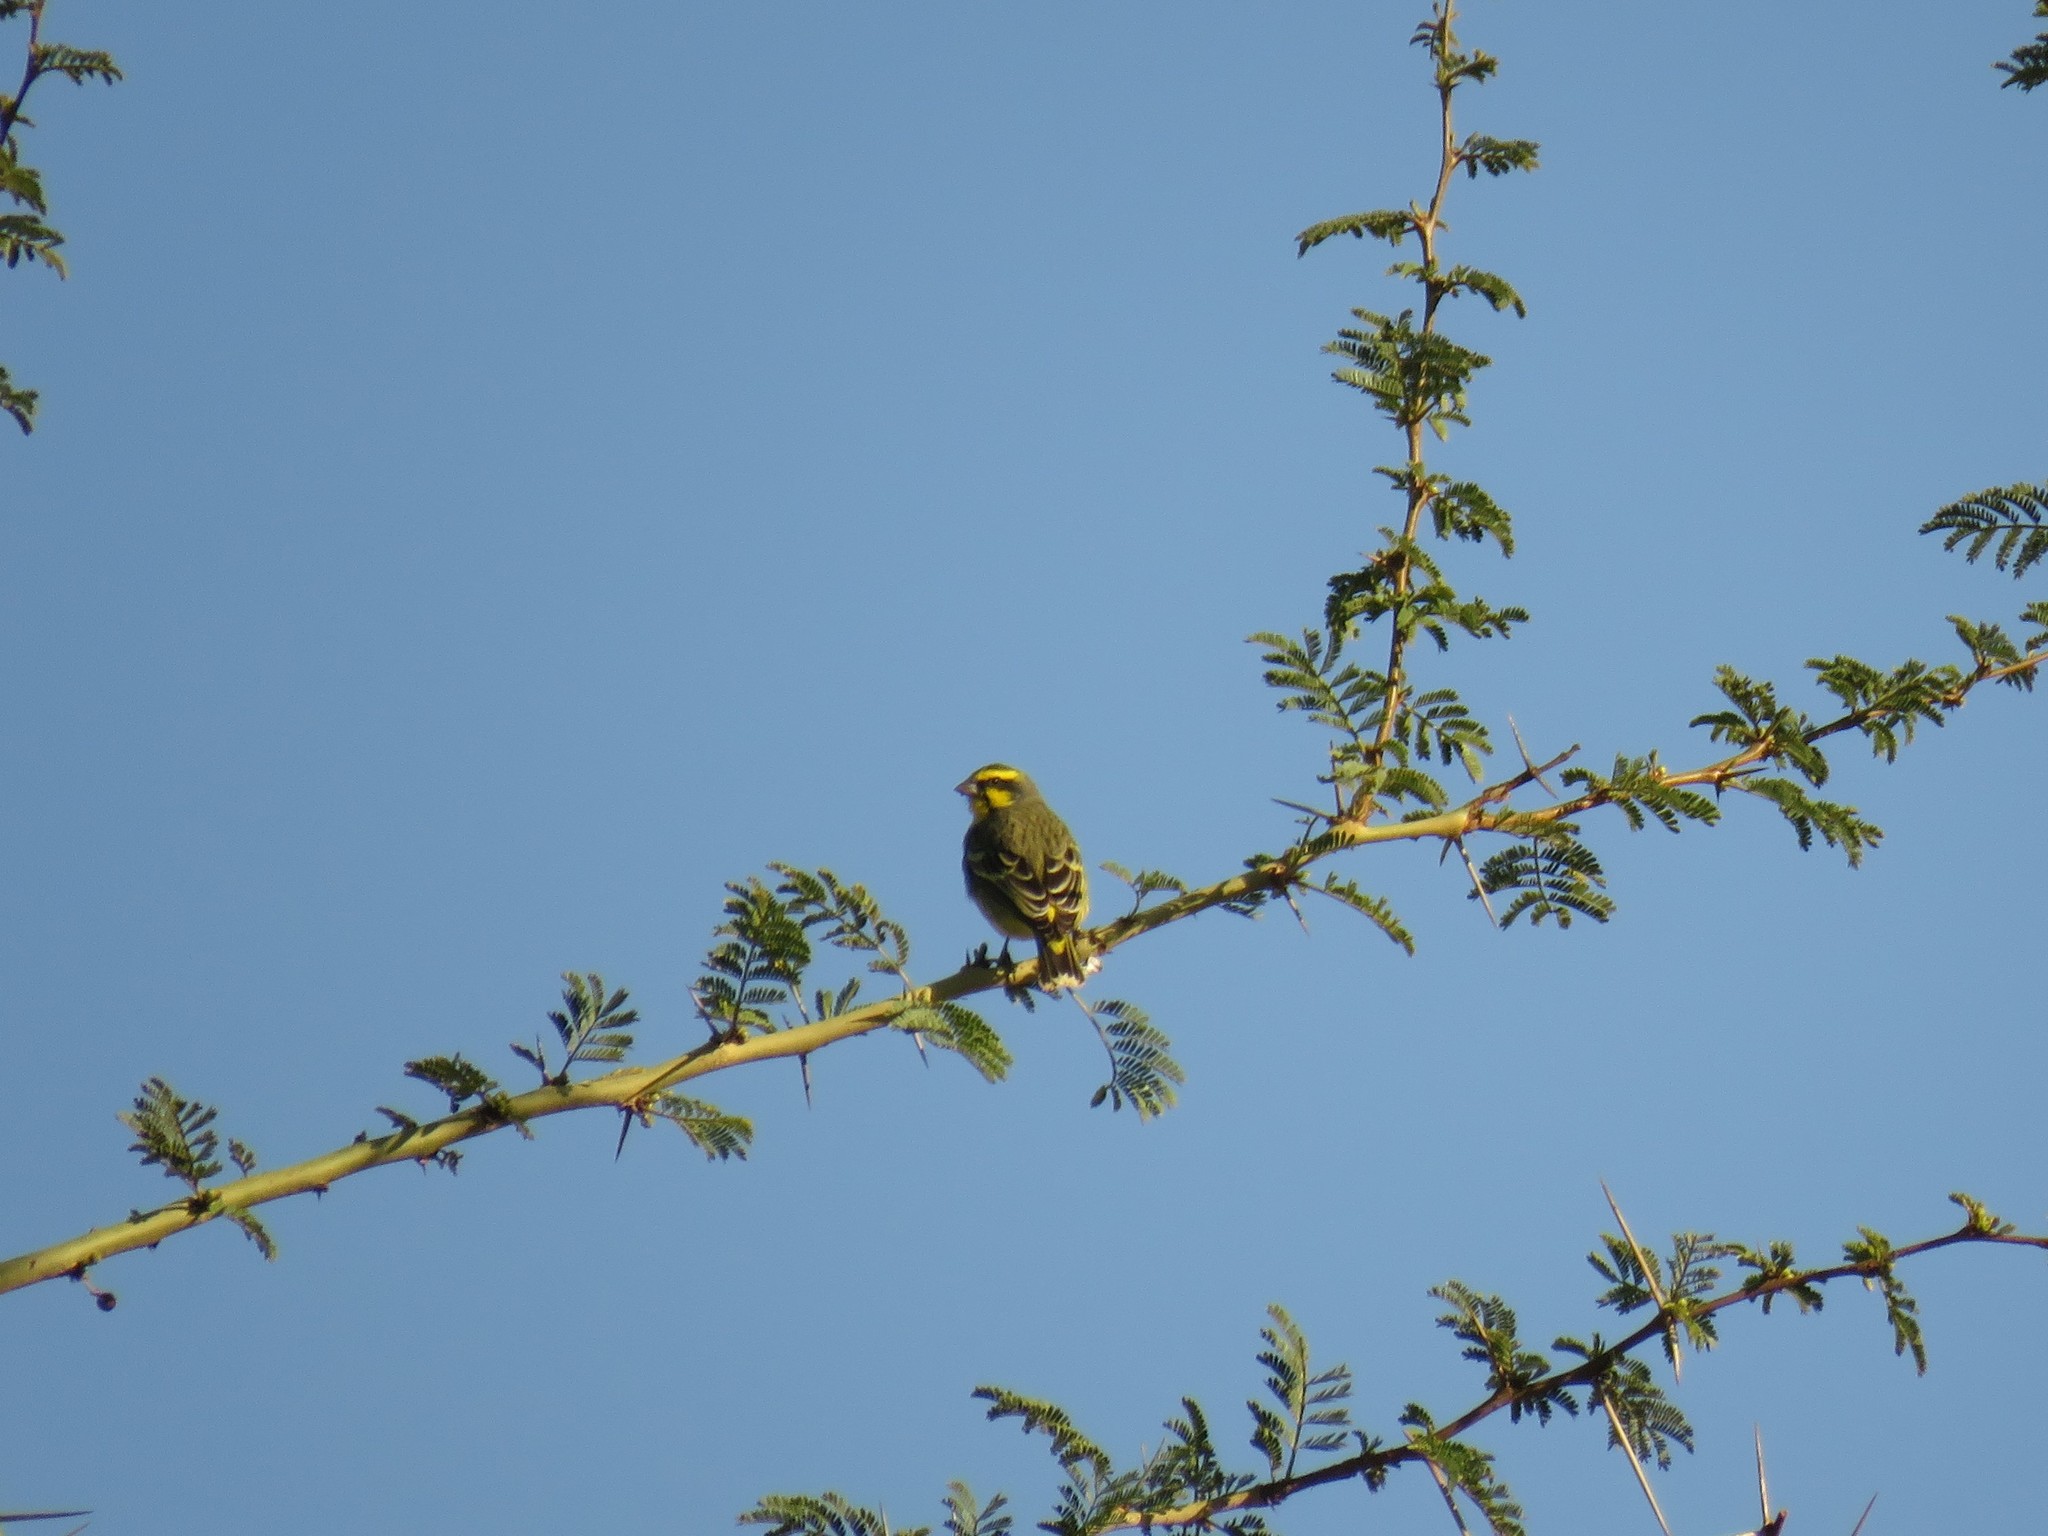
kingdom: Animalia
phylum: Chordata
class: Aves
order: Passeriformes
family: Fringillidae
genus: Crithagra
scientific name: Crithagra mozambica
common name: Yellow-fronted canary
